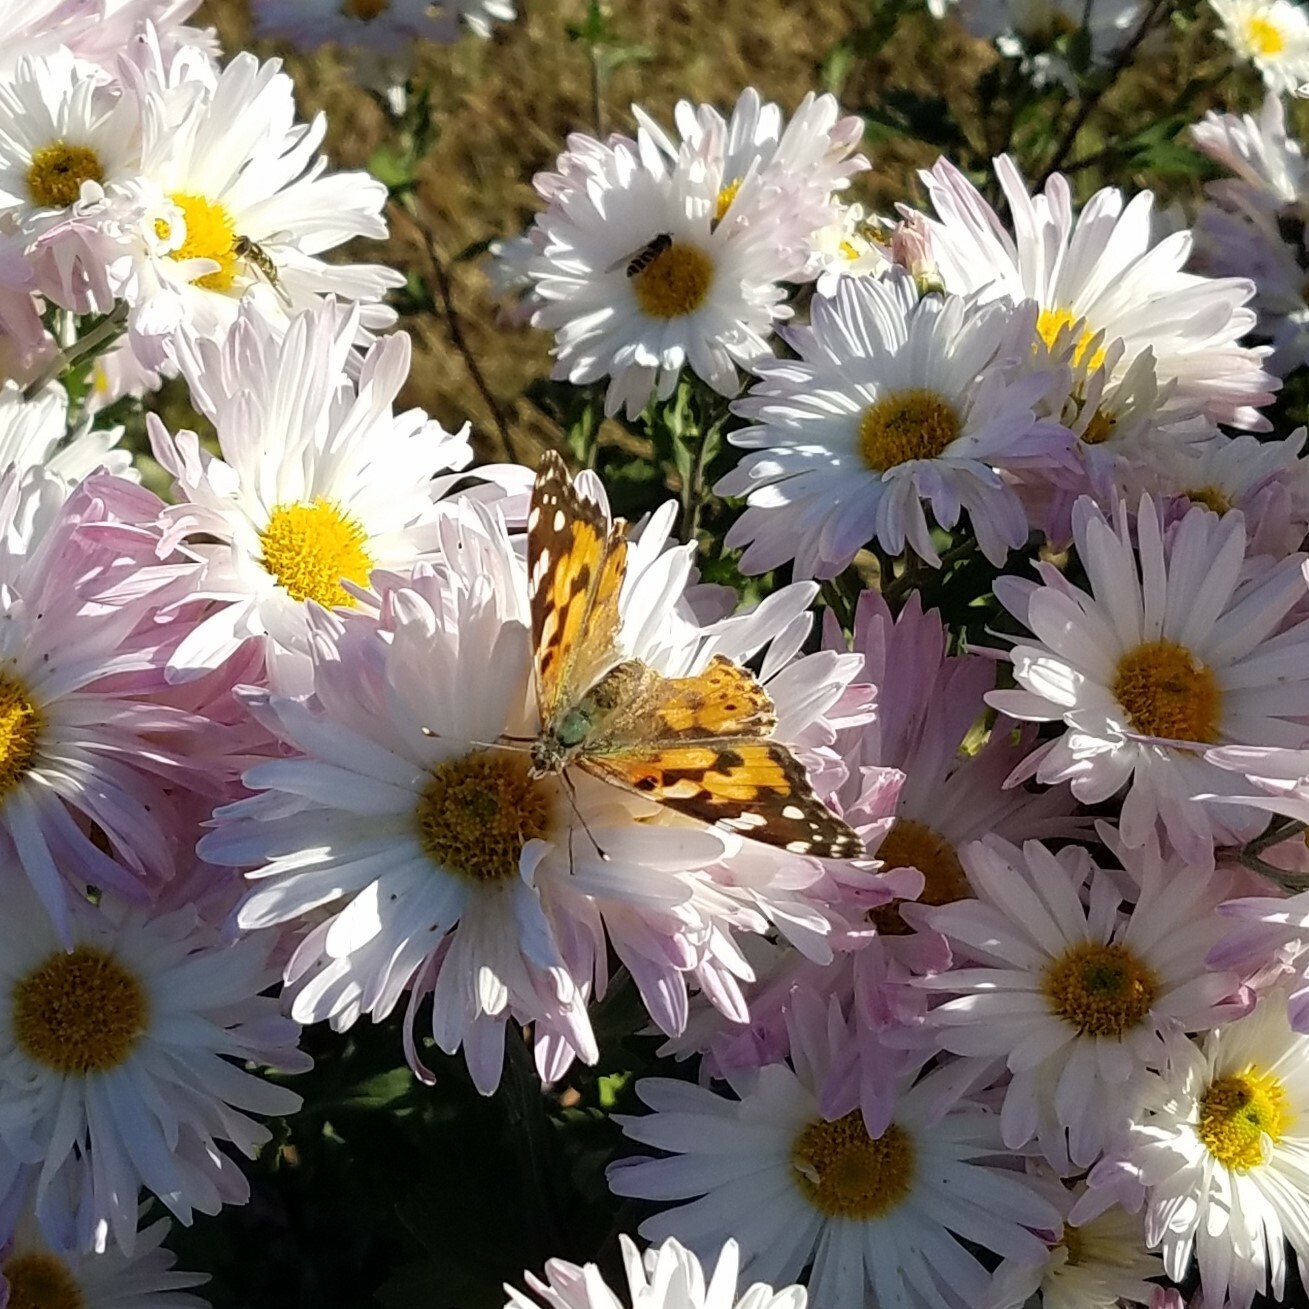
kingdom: Animalia
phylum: Arthropoda
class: Insecta
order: Lepidoptera
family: Nymphalidae
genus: Vanessa
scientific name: Vanessa cardui
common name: Painted lady
